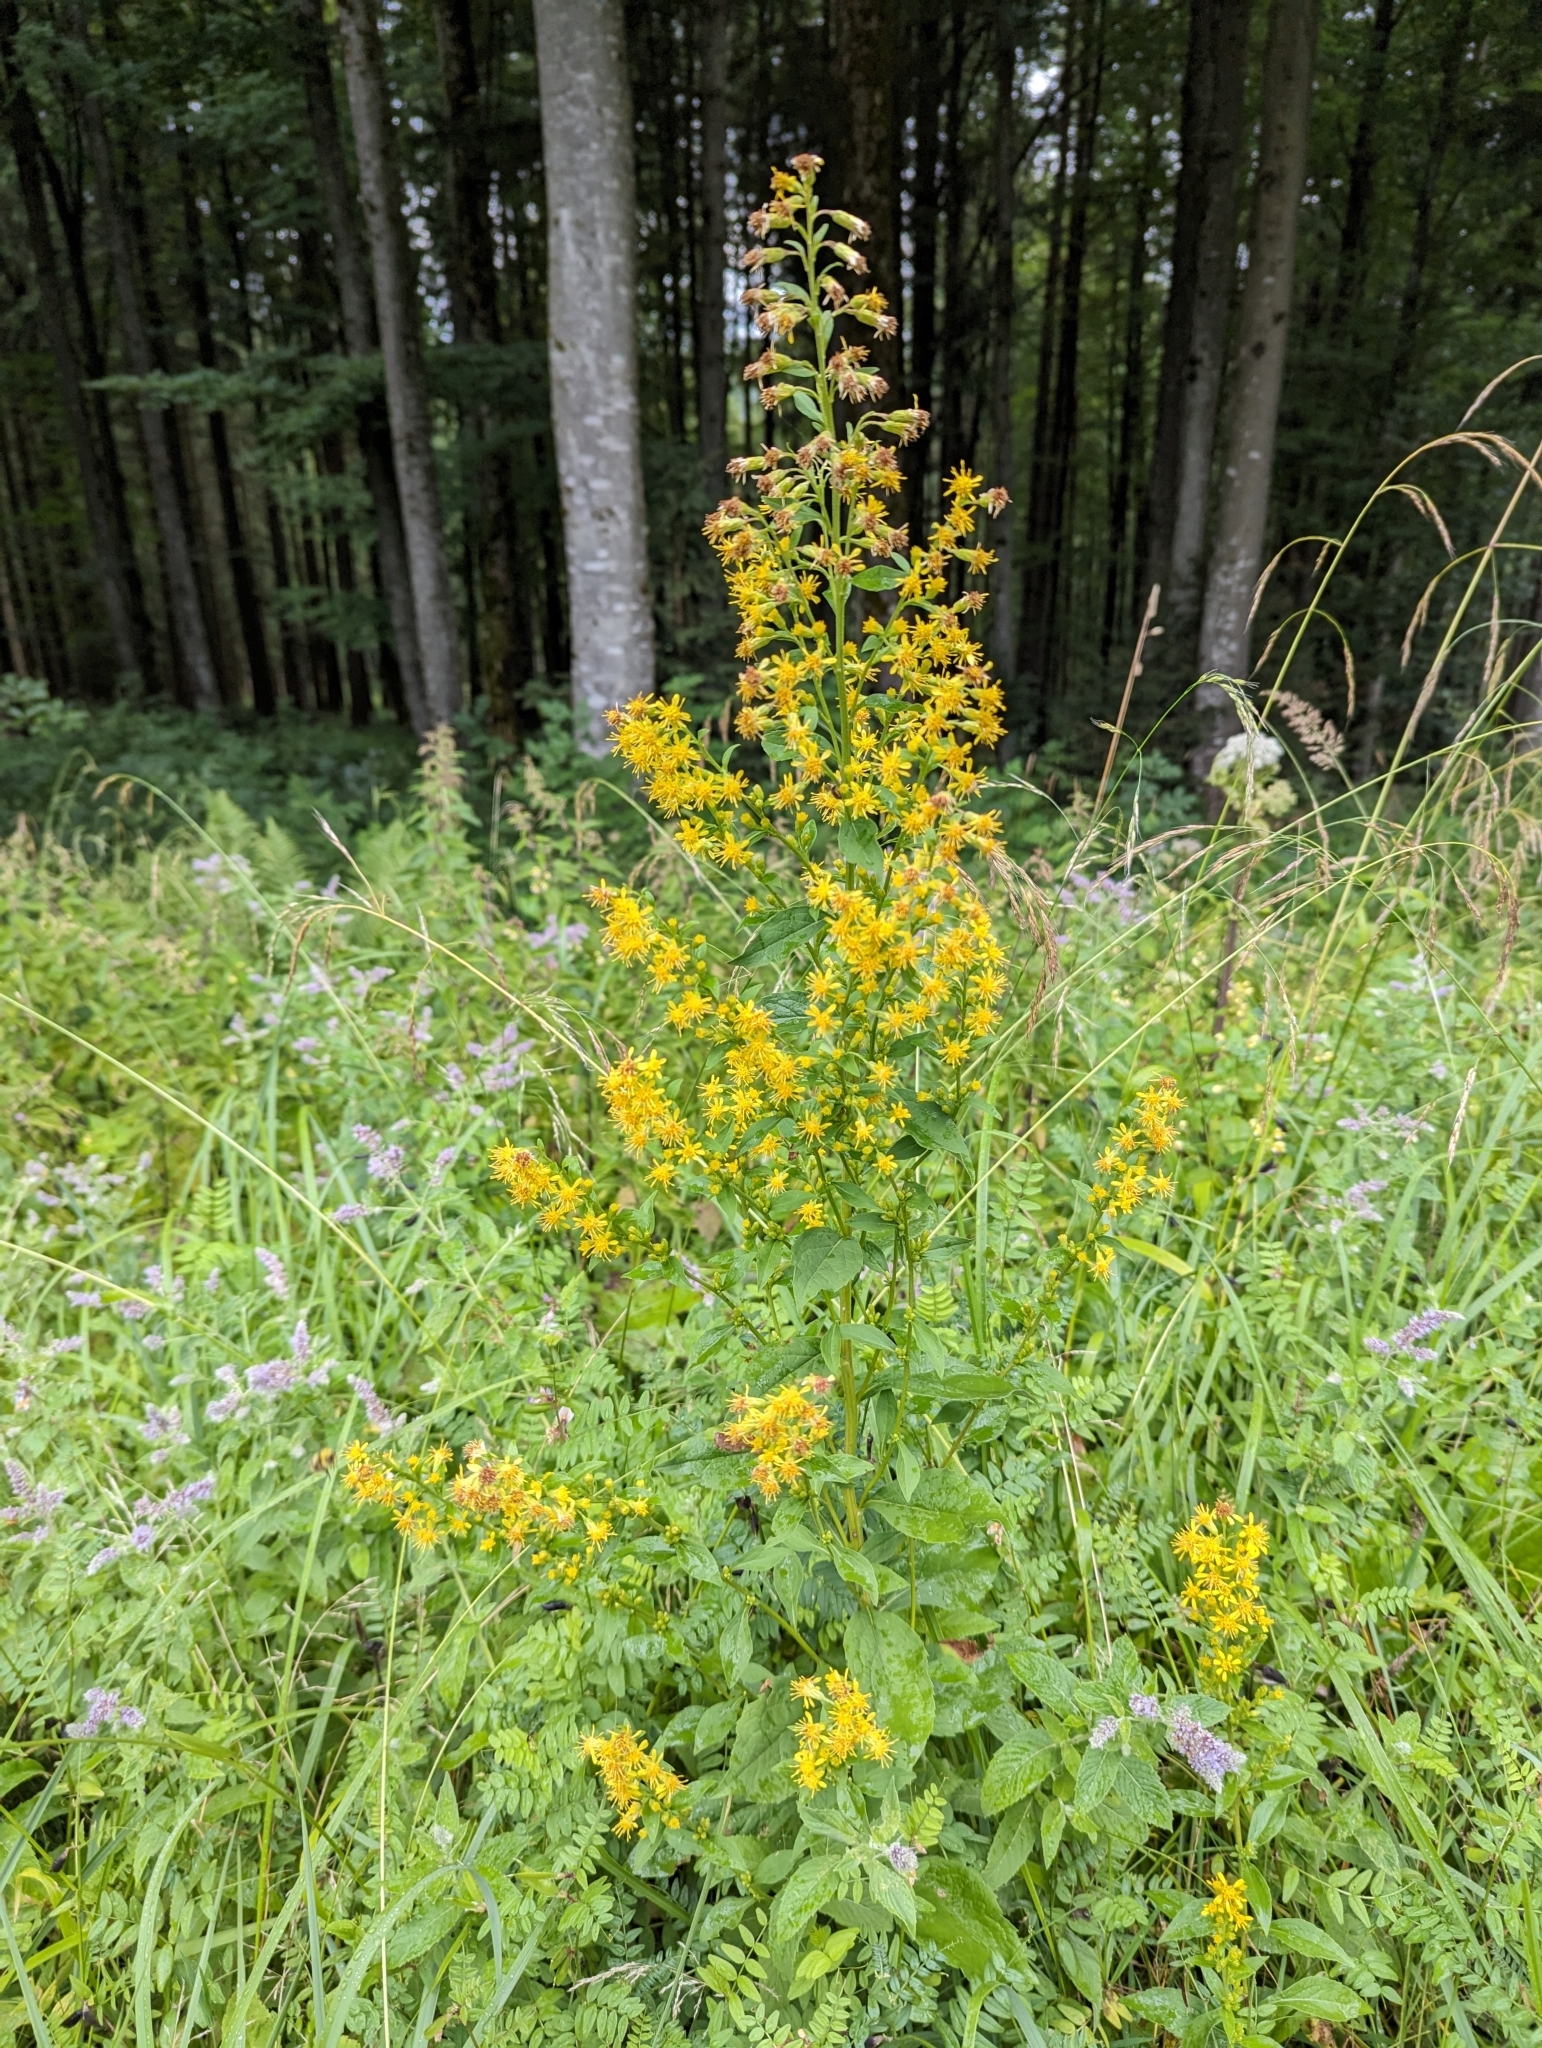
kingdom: Plantae
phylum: Tracheophyta
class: Magnoliopsida
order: Asterales
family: Asteraceae
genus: Solidago
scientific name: Solidago virgaurea
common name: Goldenrod
